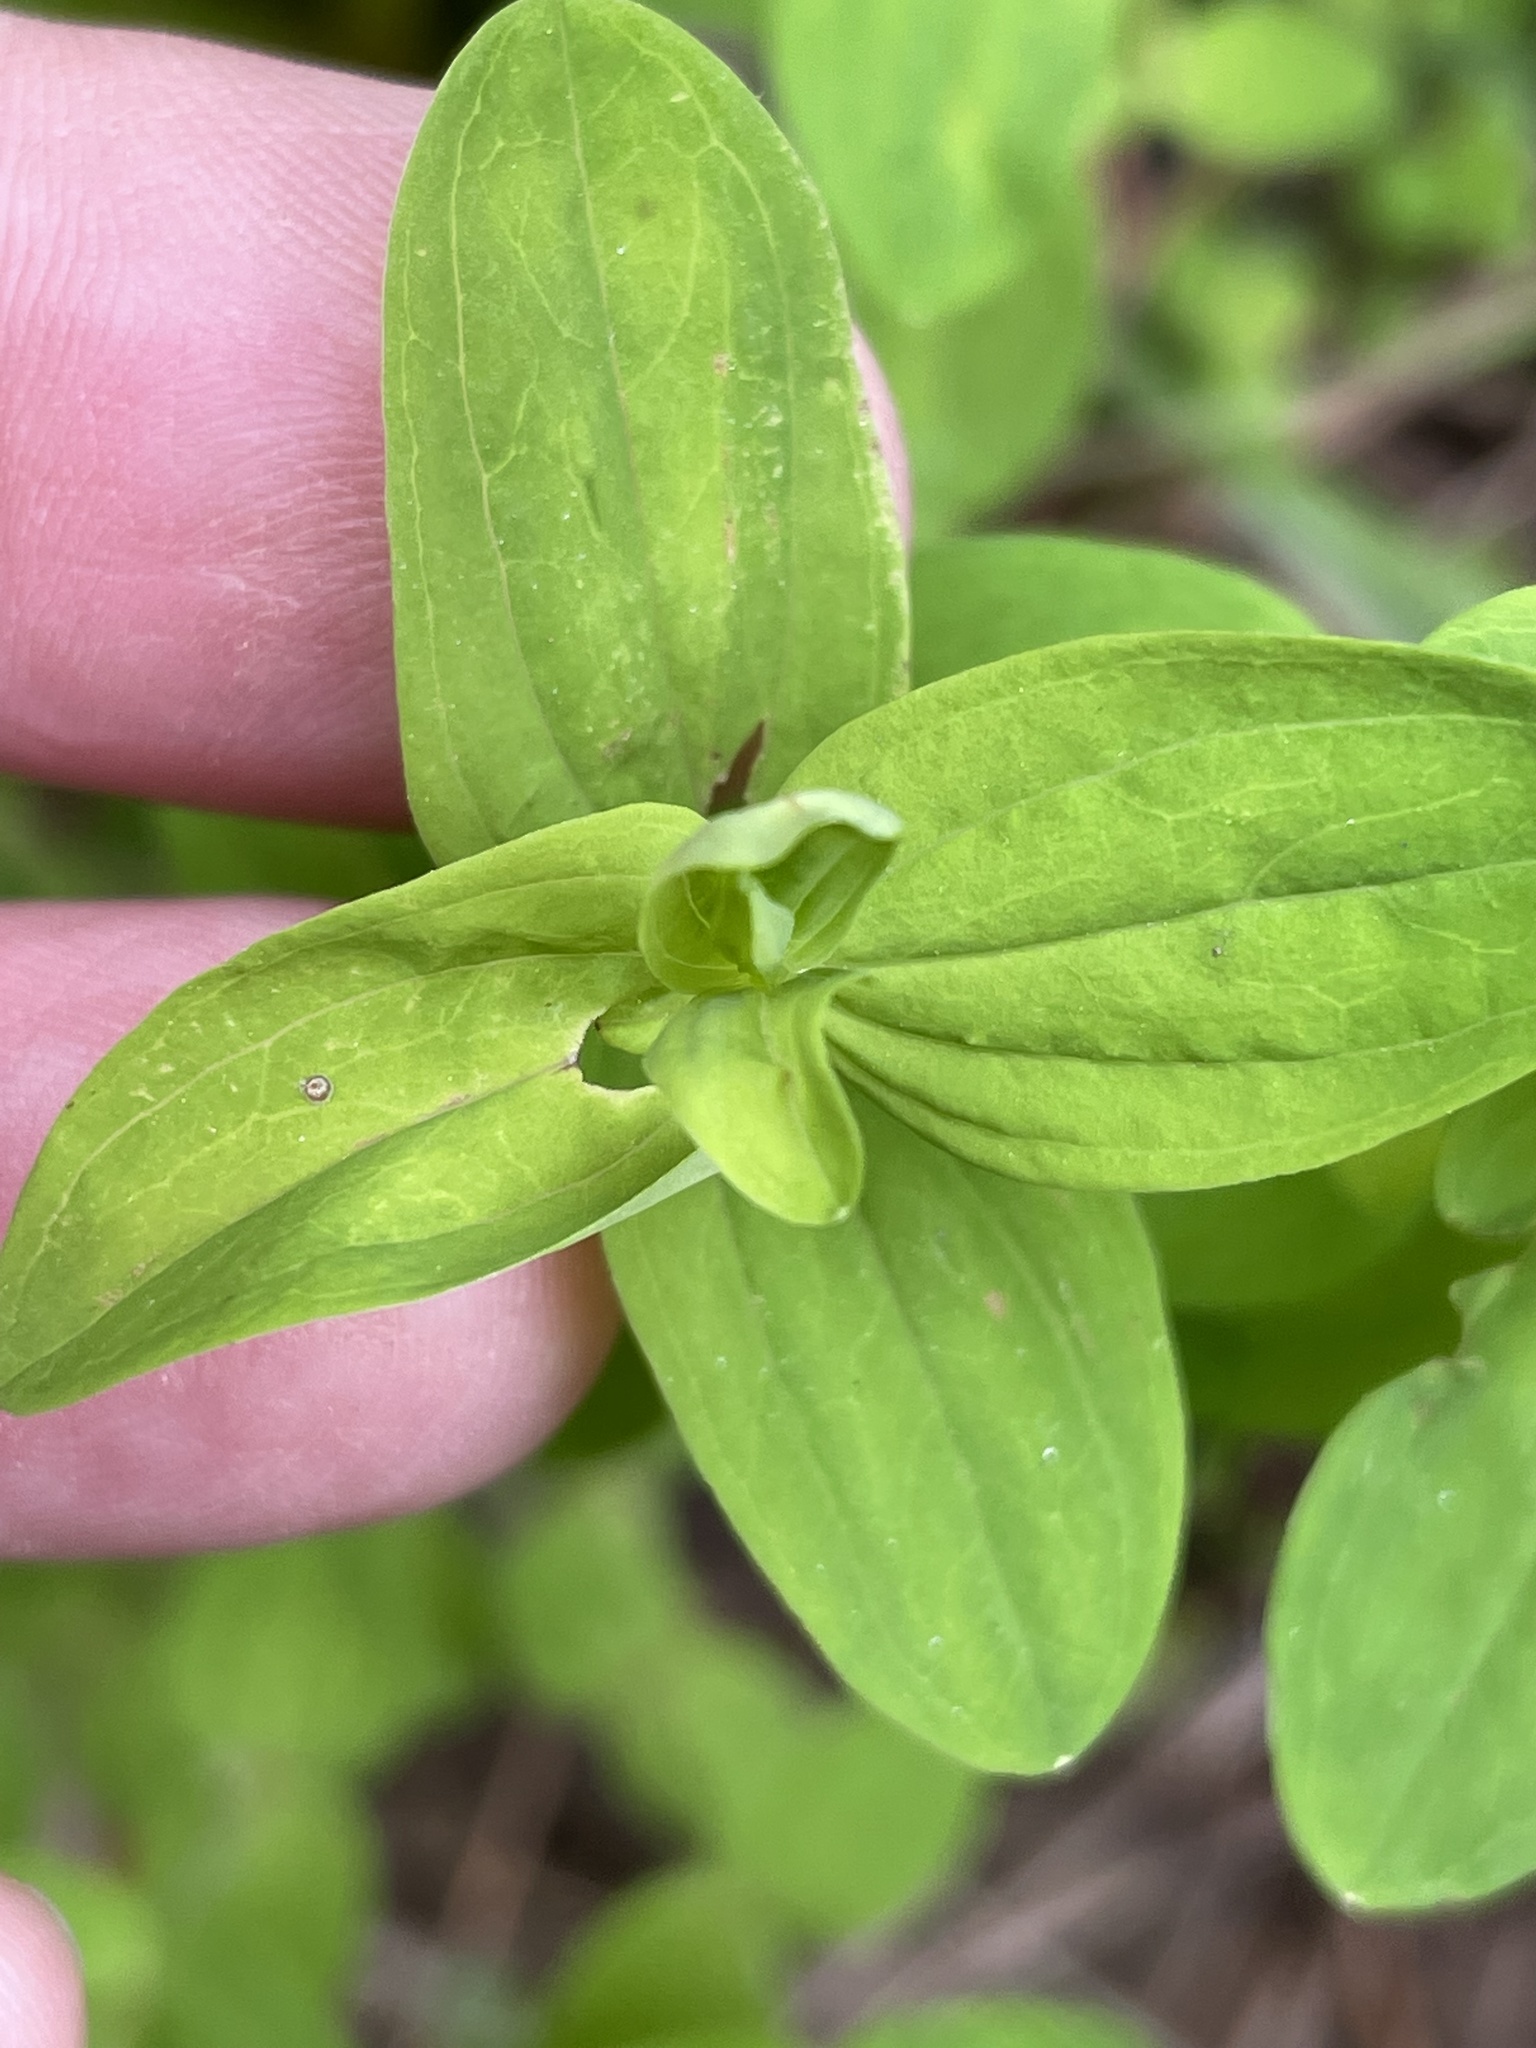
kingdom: Plantae
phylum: Tracheophyta
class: Magnoliopsida
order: Malpighiales
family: Hypericaceae
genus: Hypericum
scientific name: Hypericum mutilum
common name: Dwarf st. john's-wort
